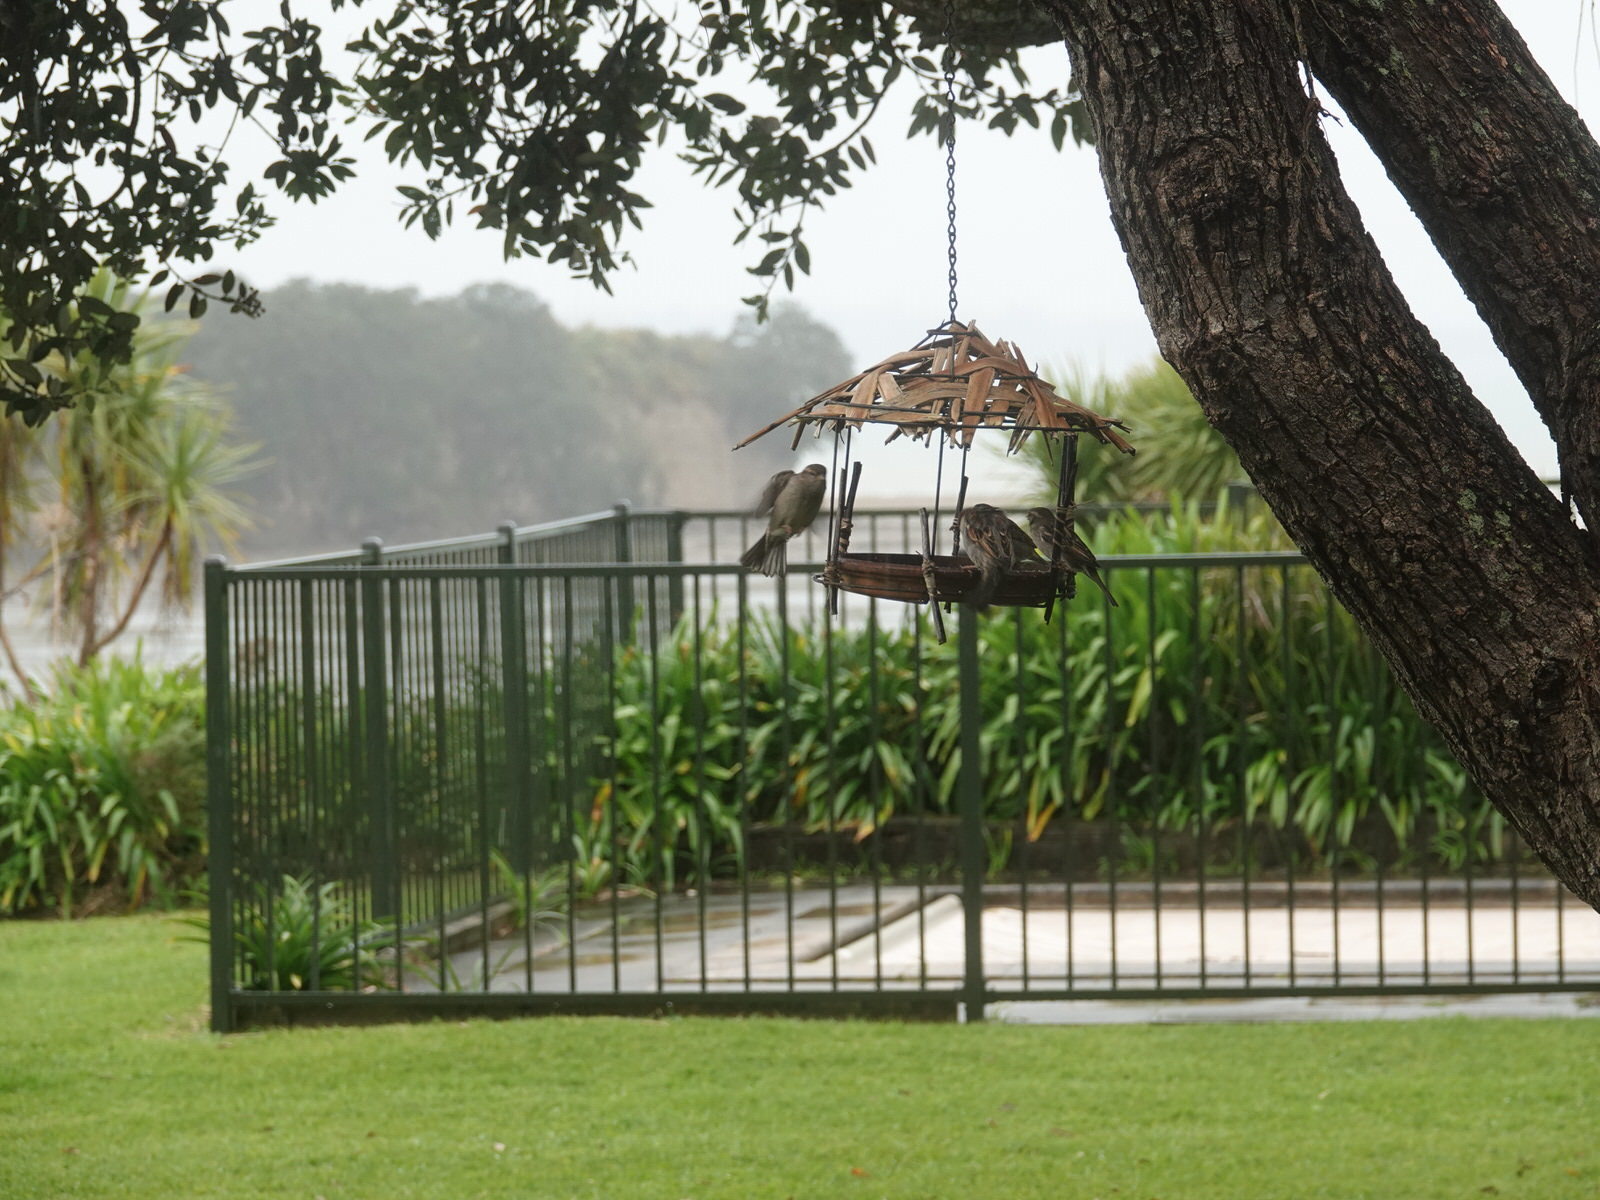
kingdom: Animalia
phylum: Chordata
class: Aves
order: Passeriformes
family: Passeridae
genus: Passer
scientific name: Passer domesticus
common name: House sparrow
